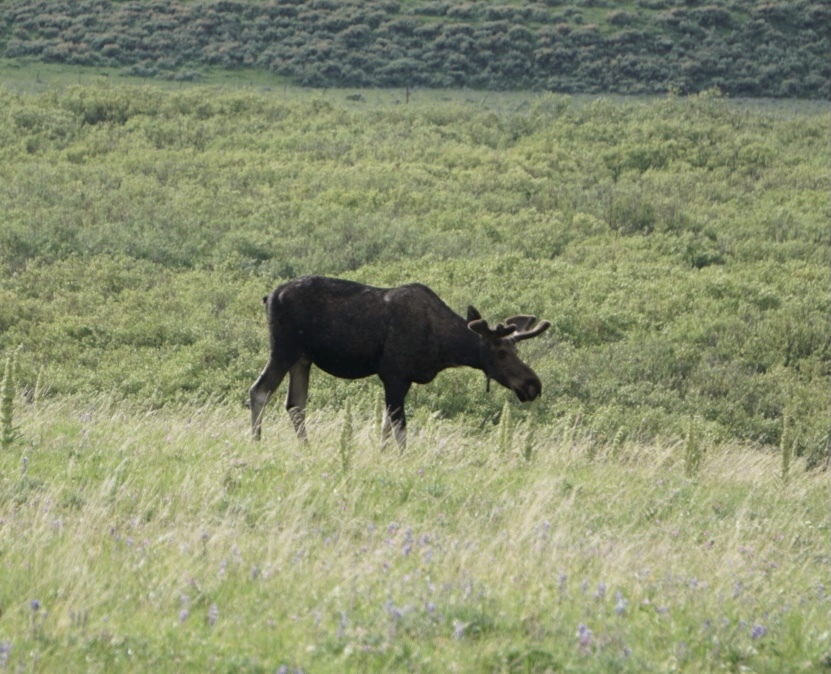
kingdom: Animalia
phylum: Chordata
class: Mammalia
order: Artiodactyla
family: Cervidae
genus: Alces
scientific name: Alces alces
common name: Moose
